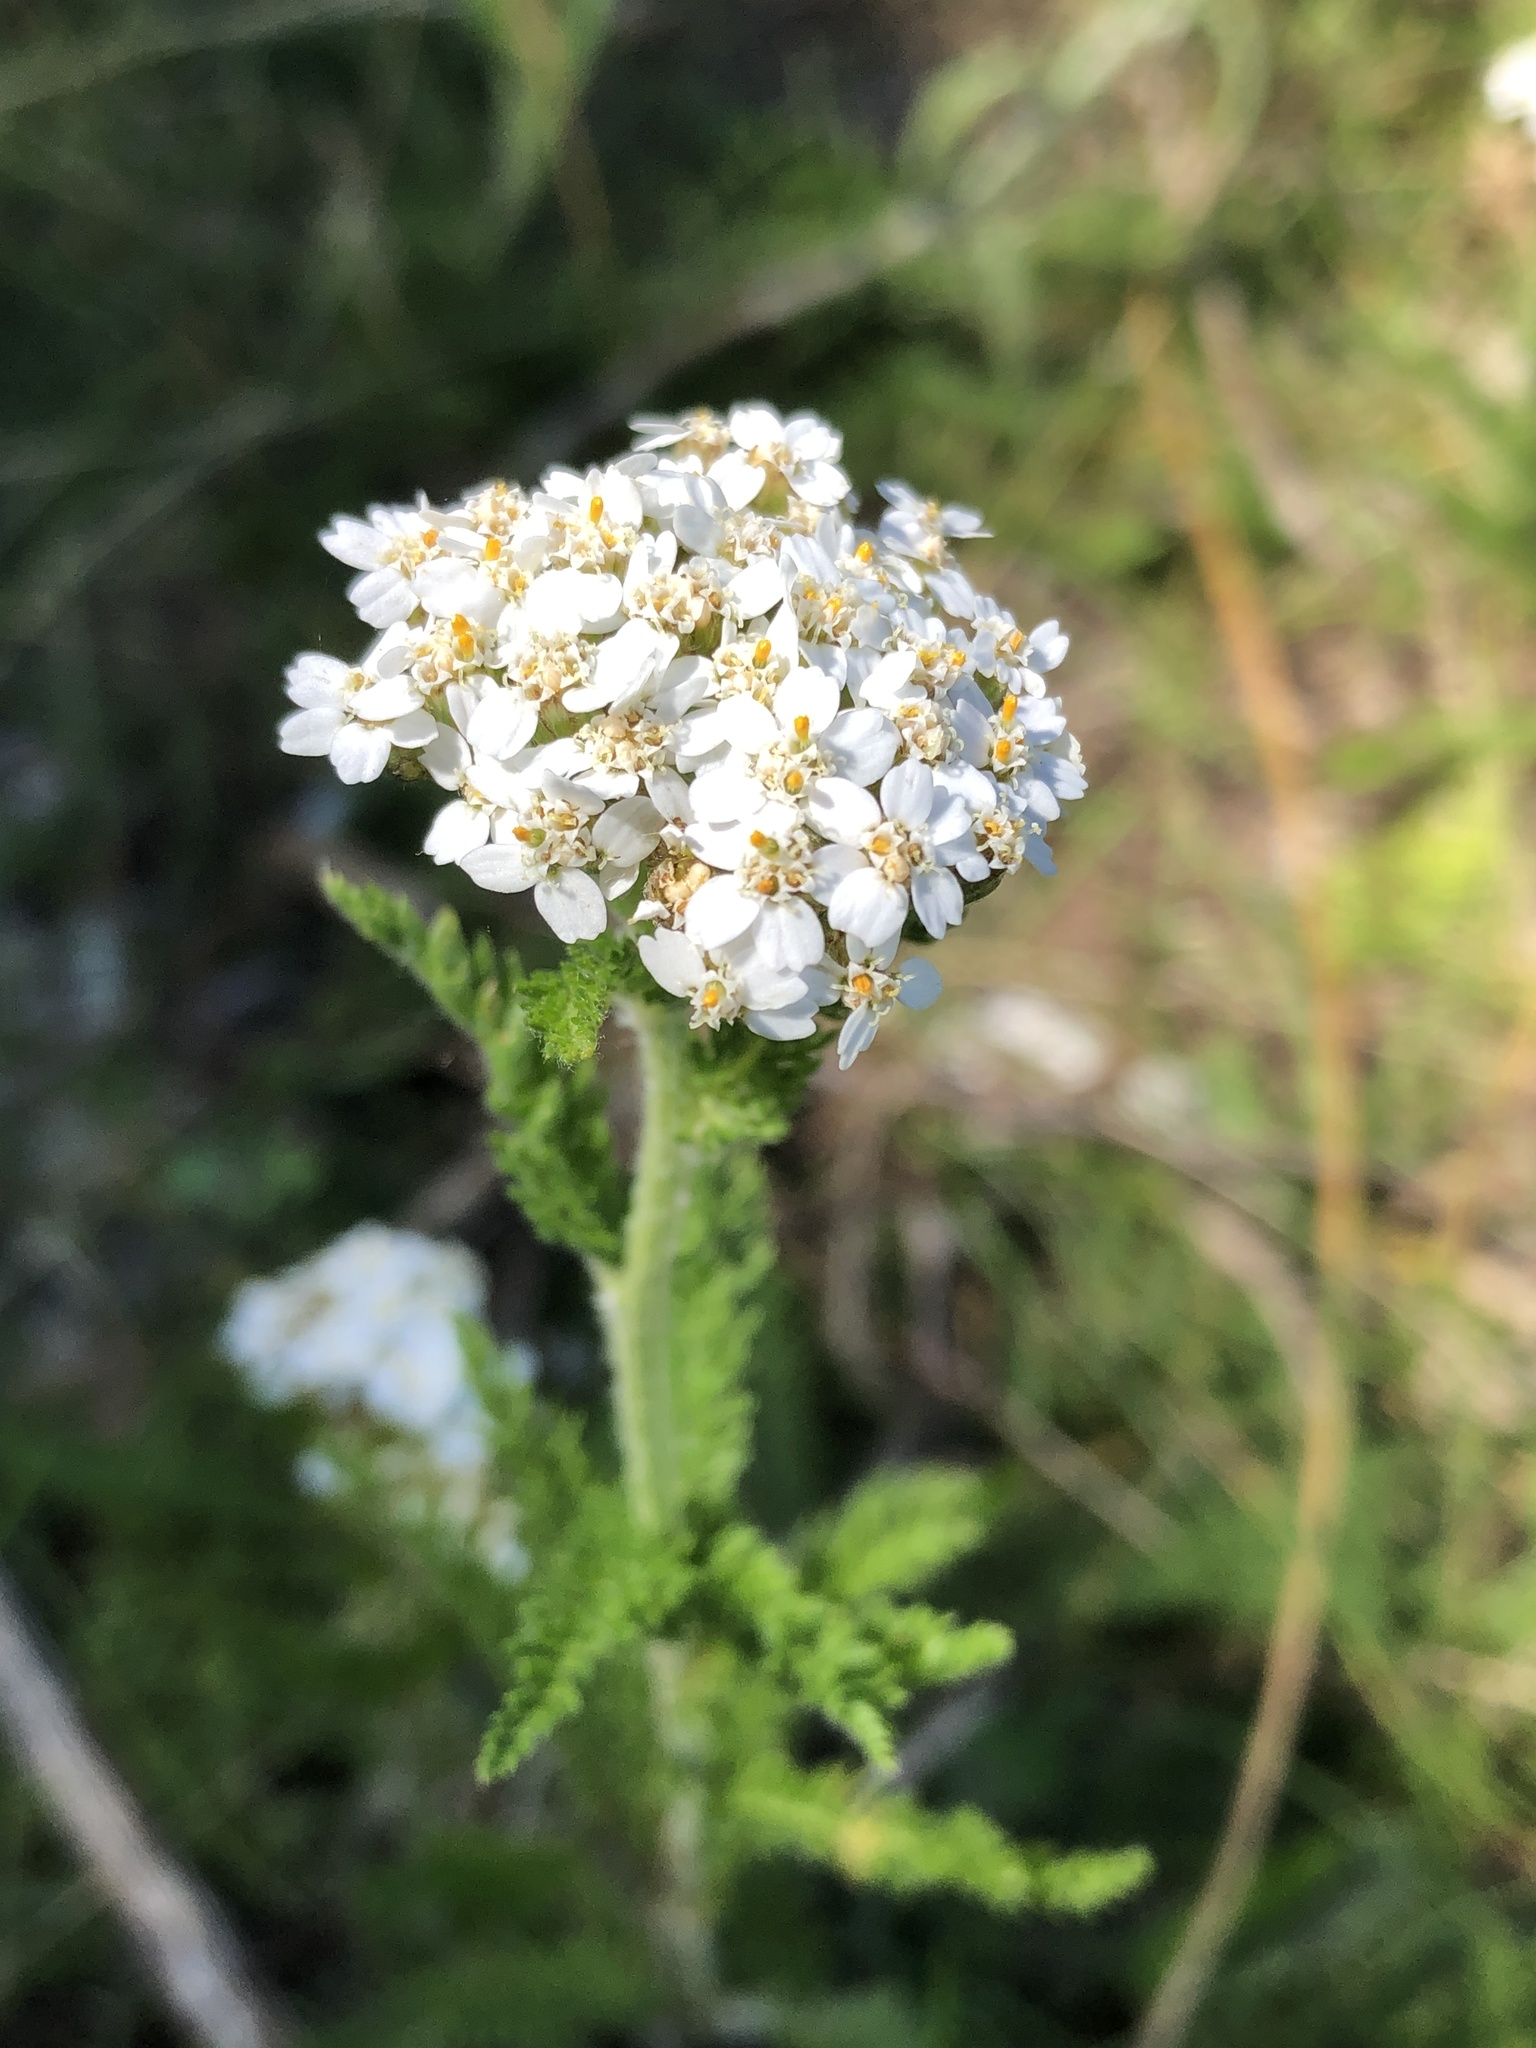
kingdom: Plantae
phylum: Tracheophyta
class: Magnoliopsida
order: Asterales
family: Asteraceae
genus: Achillea
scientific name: Achillea millefolium
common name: Yarrow
